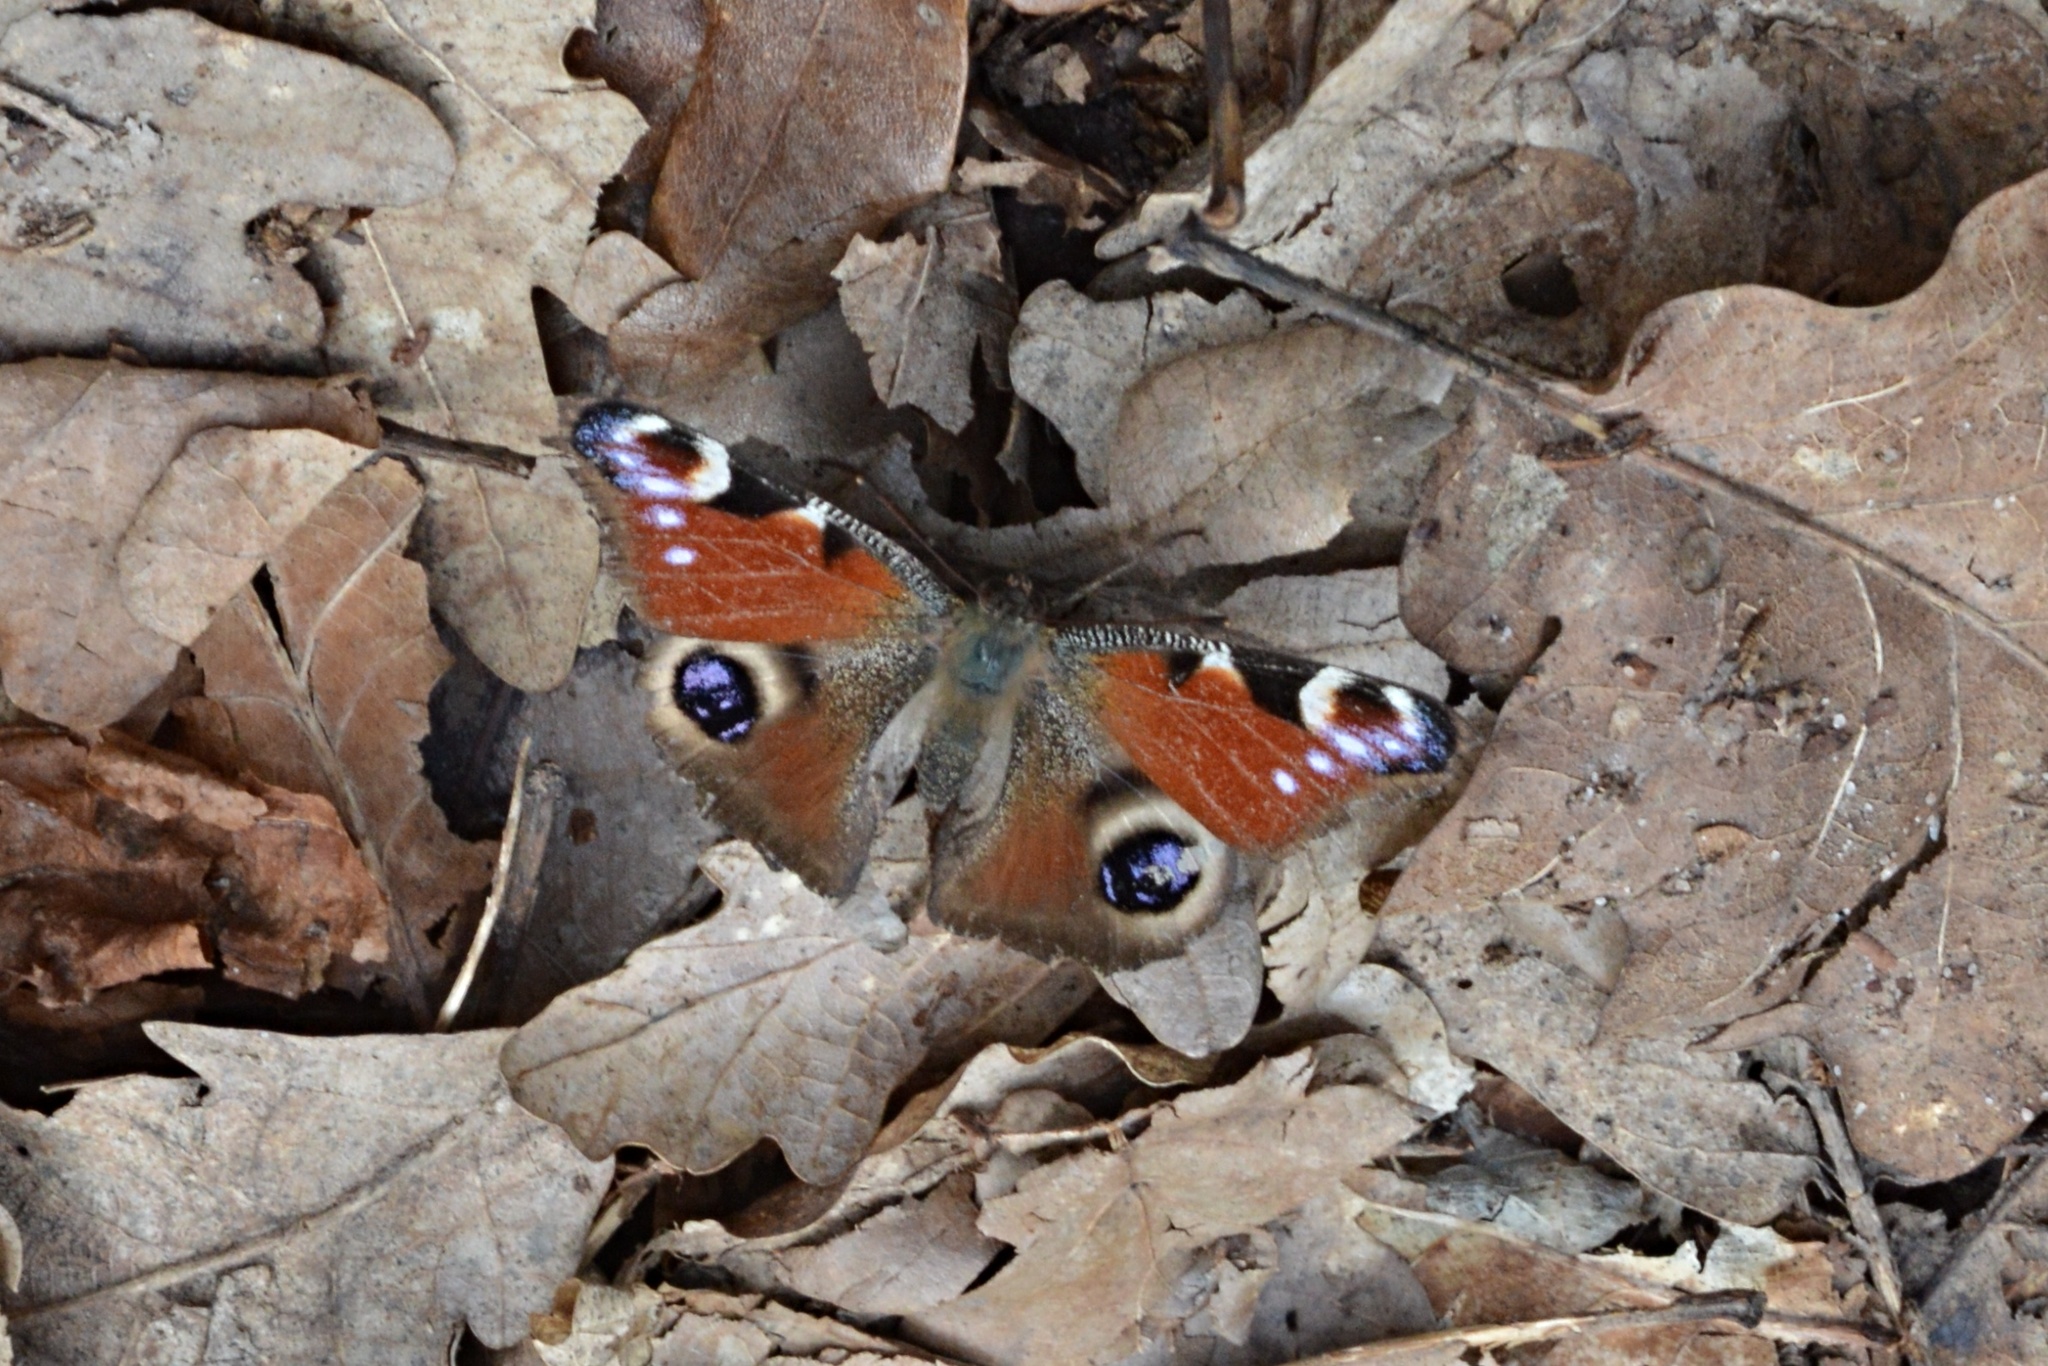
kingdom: Animalia
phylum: Arthropoda
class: Insecta
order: Lepidoptera
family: Nymphalidae
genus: Aglais
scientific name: Aglais io
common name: Peacock
